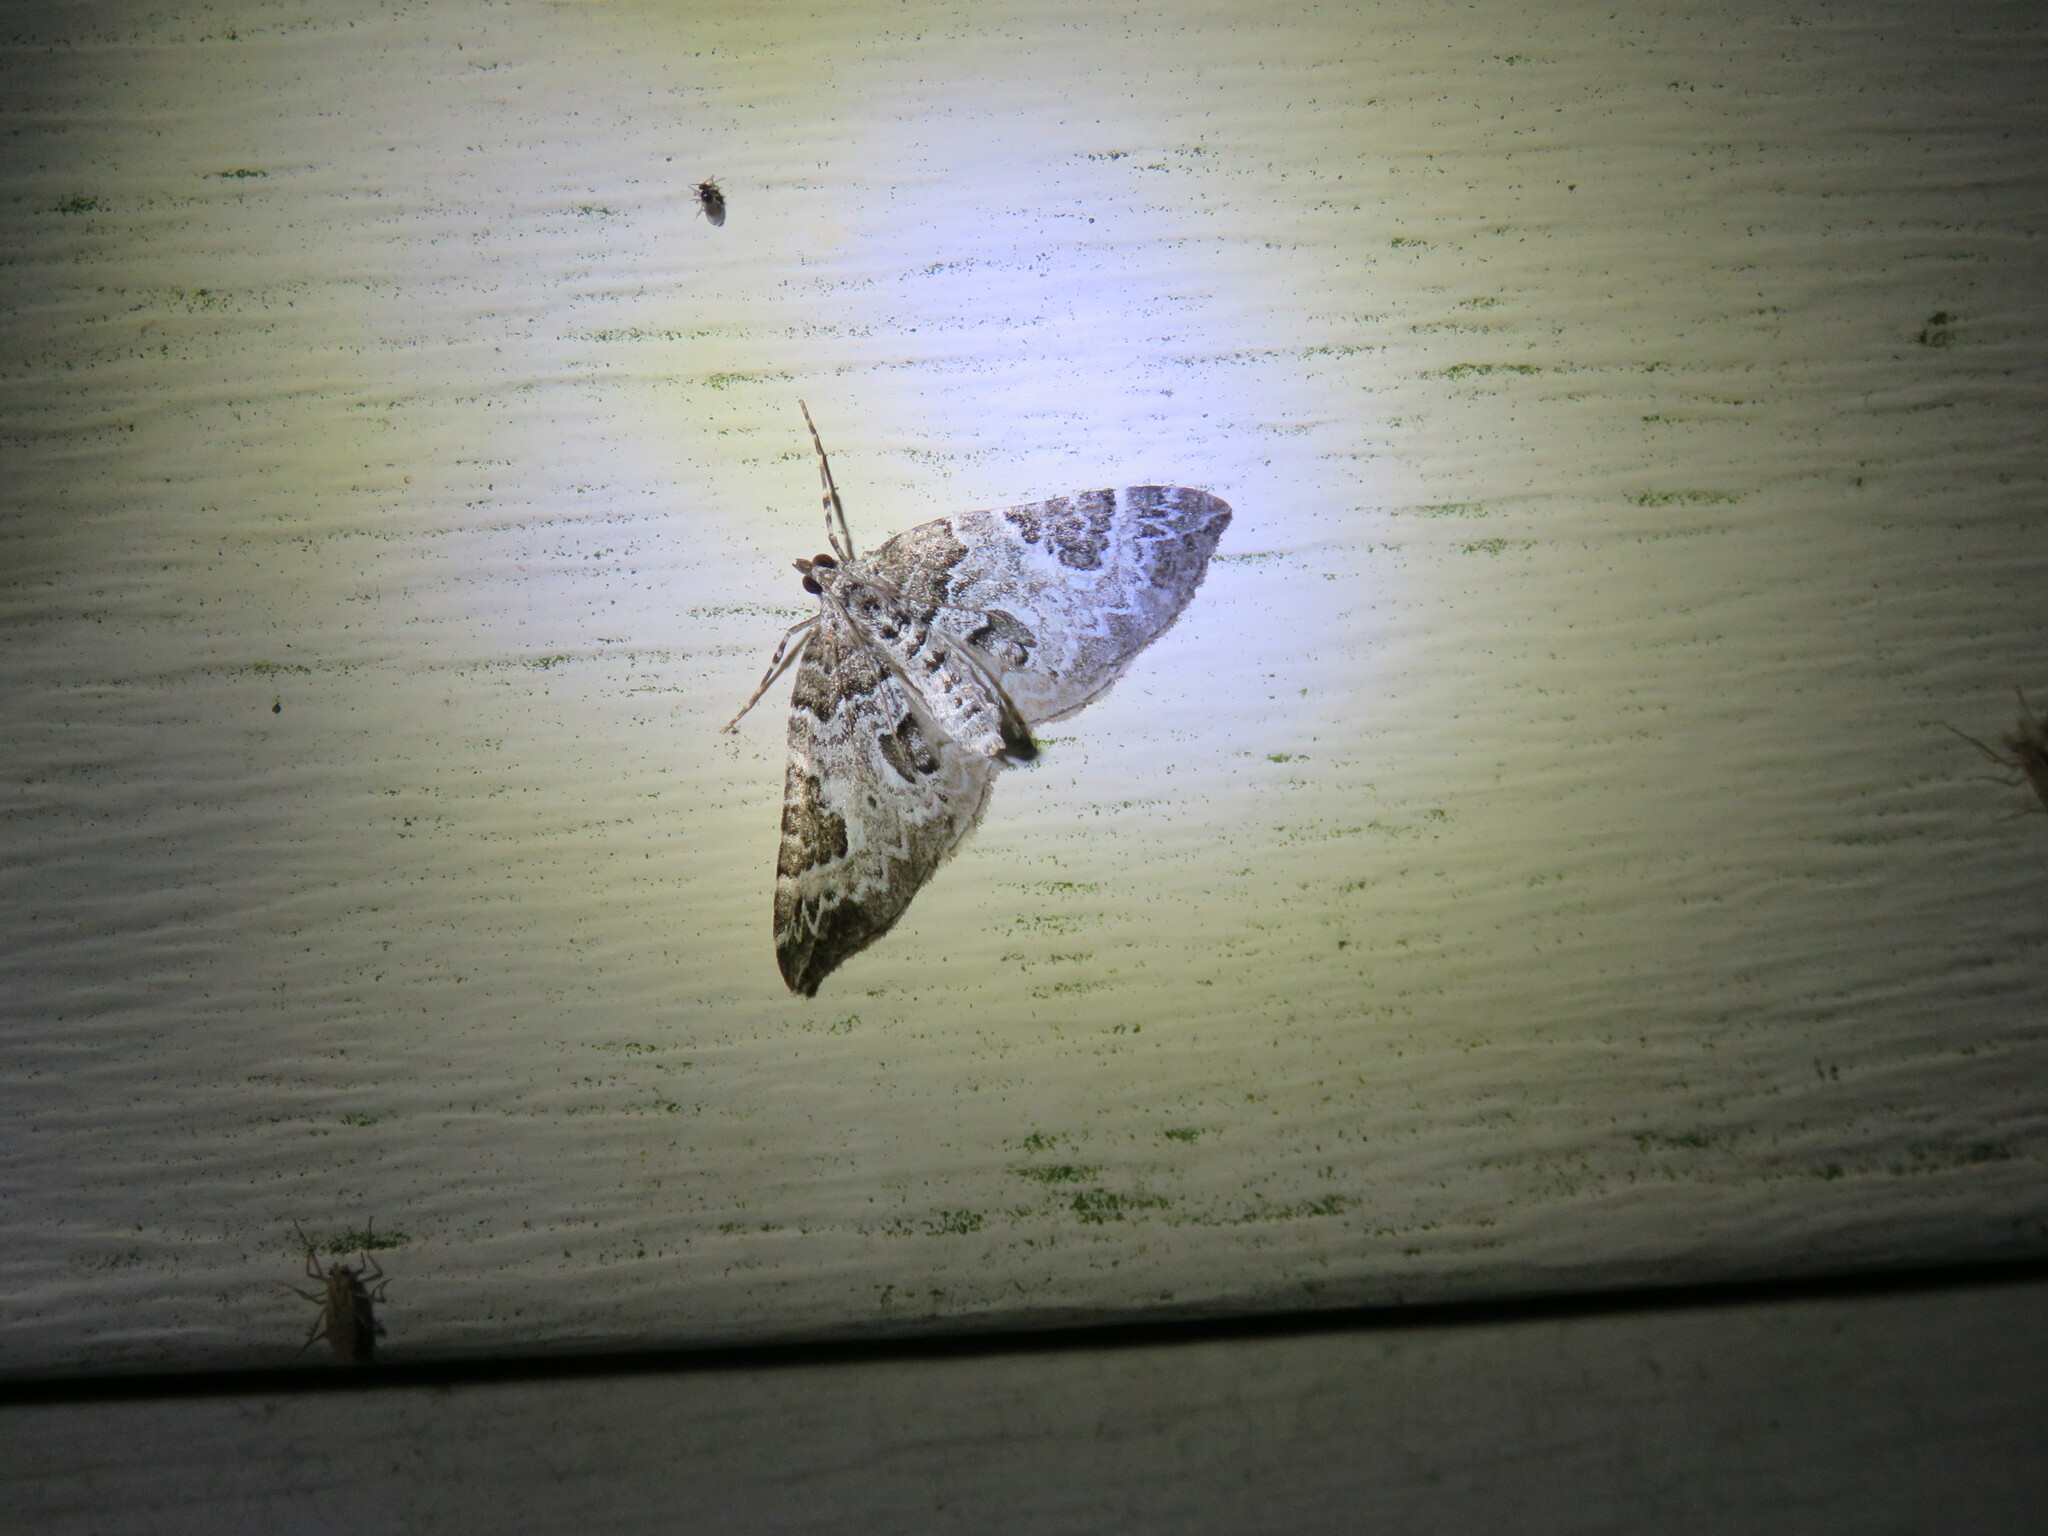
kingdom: Animalia
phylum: Arthropoda
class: Insecta
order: Lepidoptera
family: Geometridae
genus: Eulithis
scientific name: Eulithis explanata
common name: White eulithis
